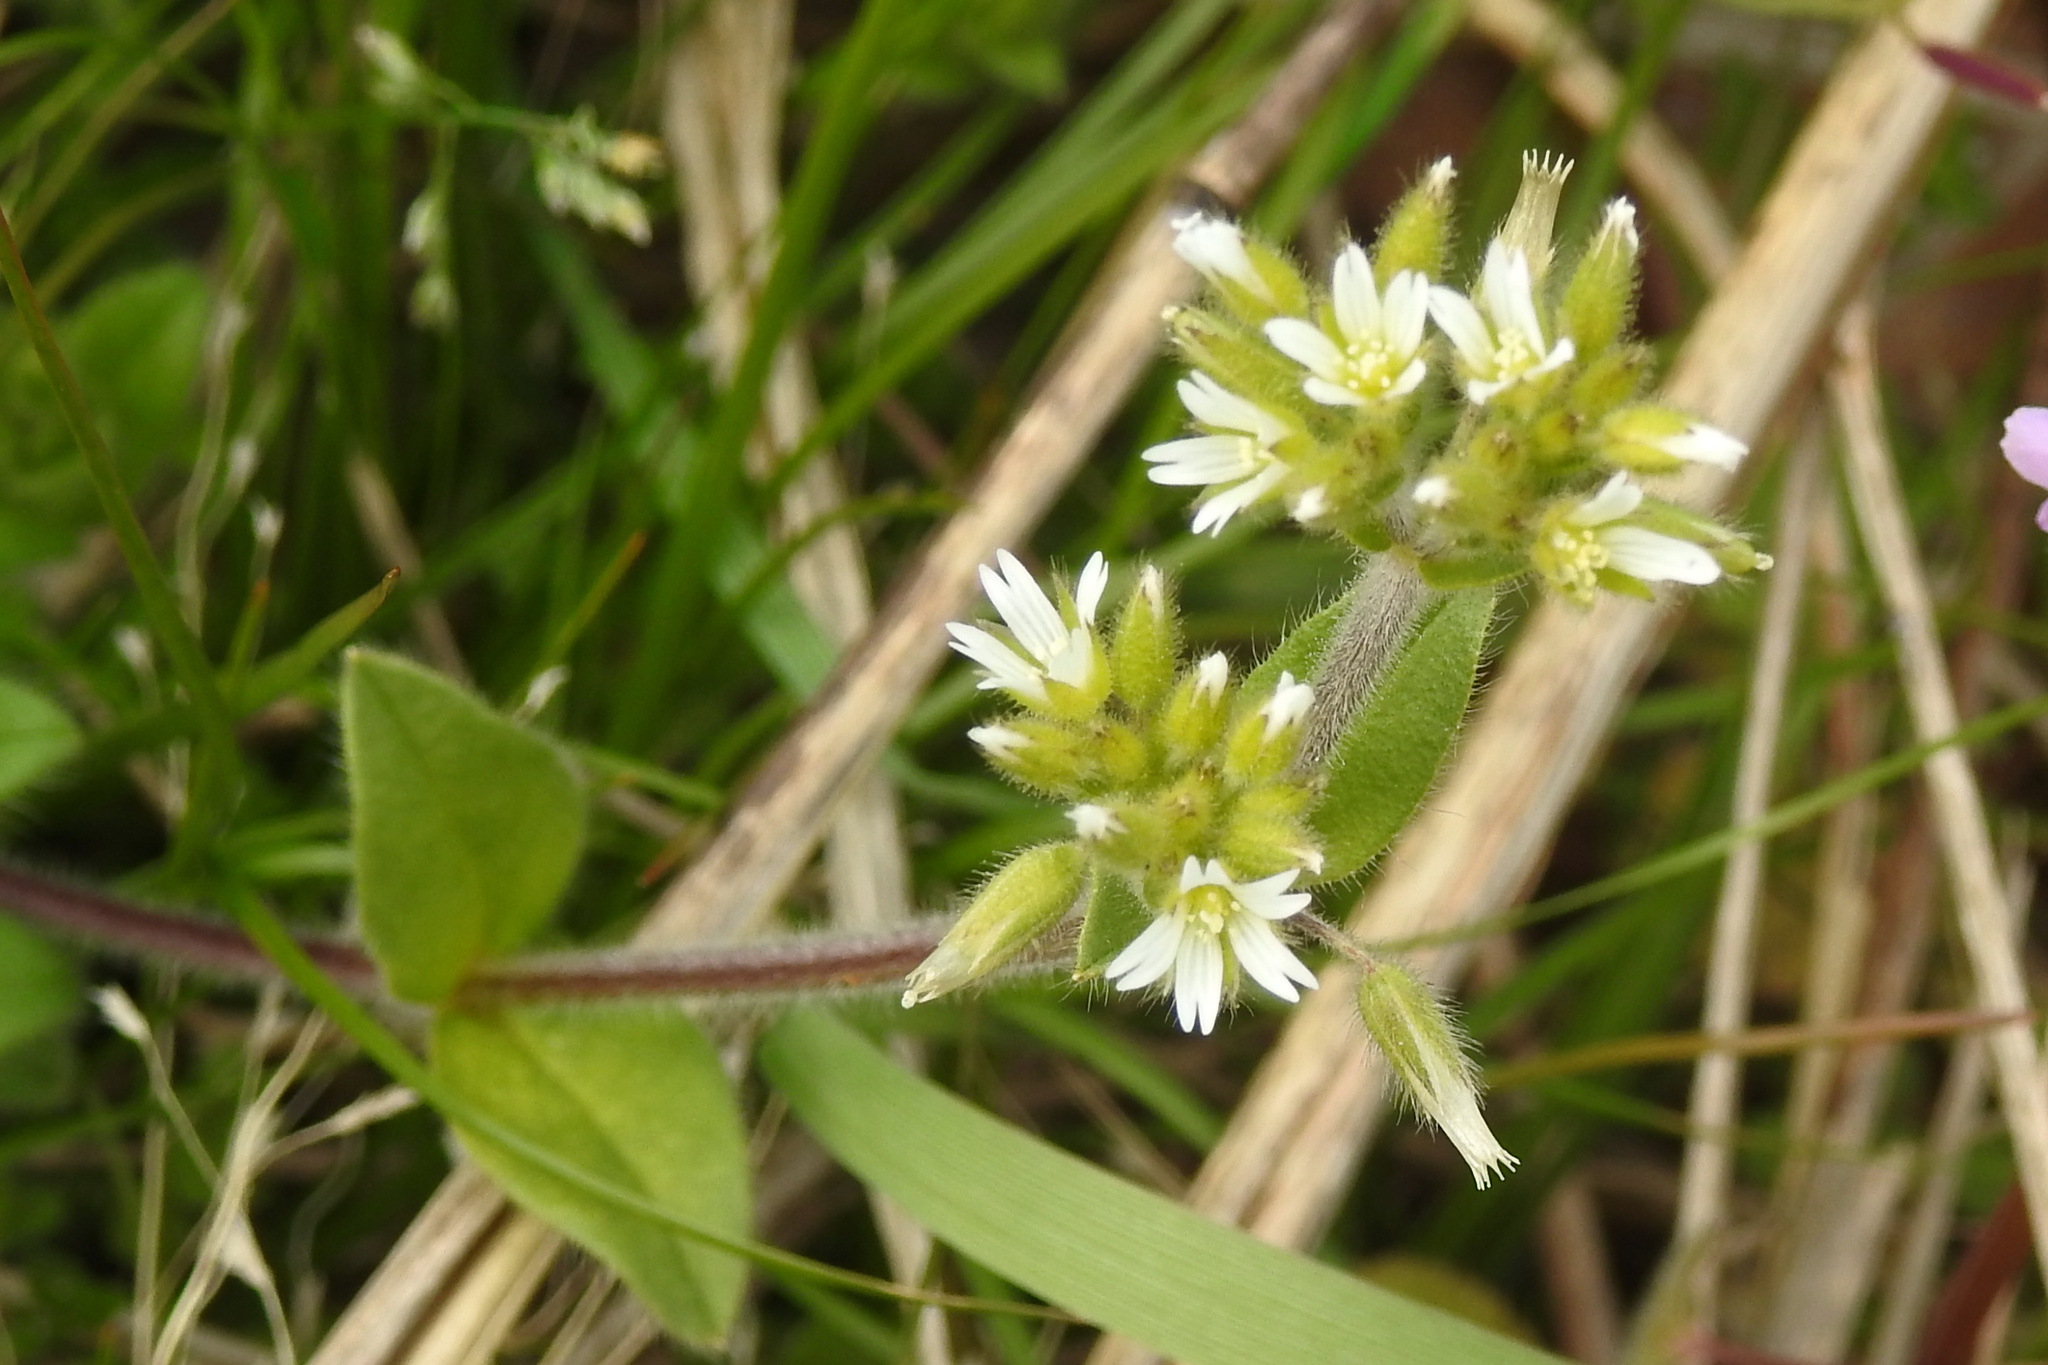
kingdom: Plantae
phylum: Tracheophyta
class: Magnoliopsida
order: Caryophyllales
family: Caryophyllaceae
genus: Cerastium
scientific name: Cerastium glomeratum
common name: Sticky chickweed
